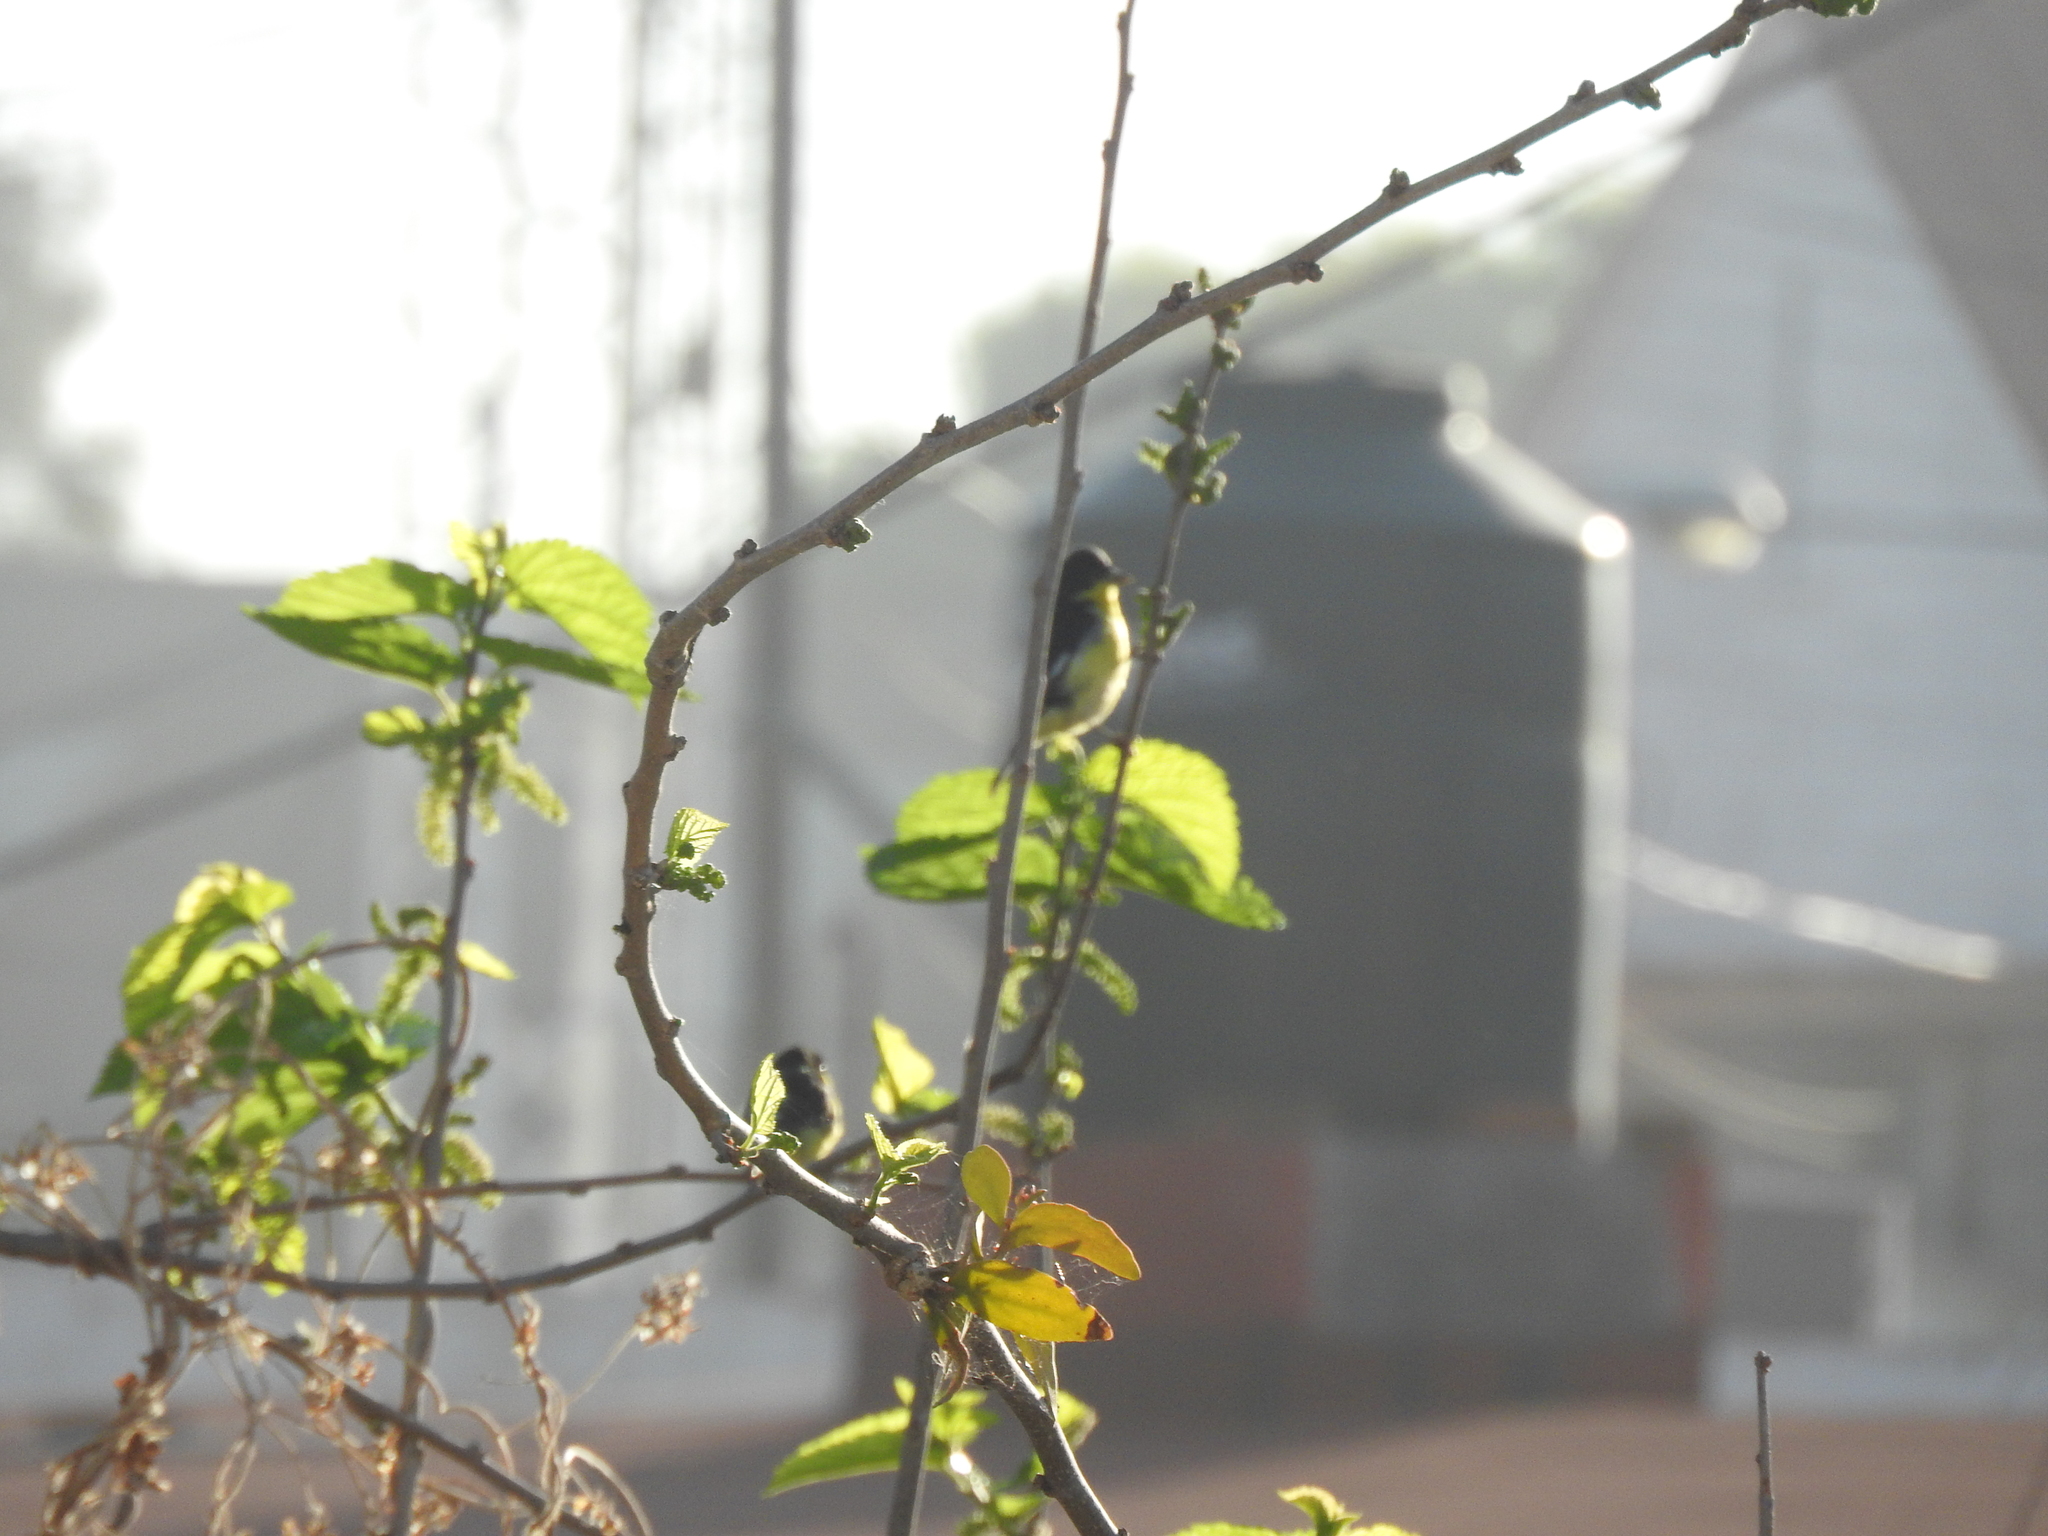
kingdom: Animalia
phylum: Chordata
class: Aves
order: Passeriformes
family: Fringillidae
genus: Spinus
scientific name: Spinus psaltria
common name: Lesser goldfinch
